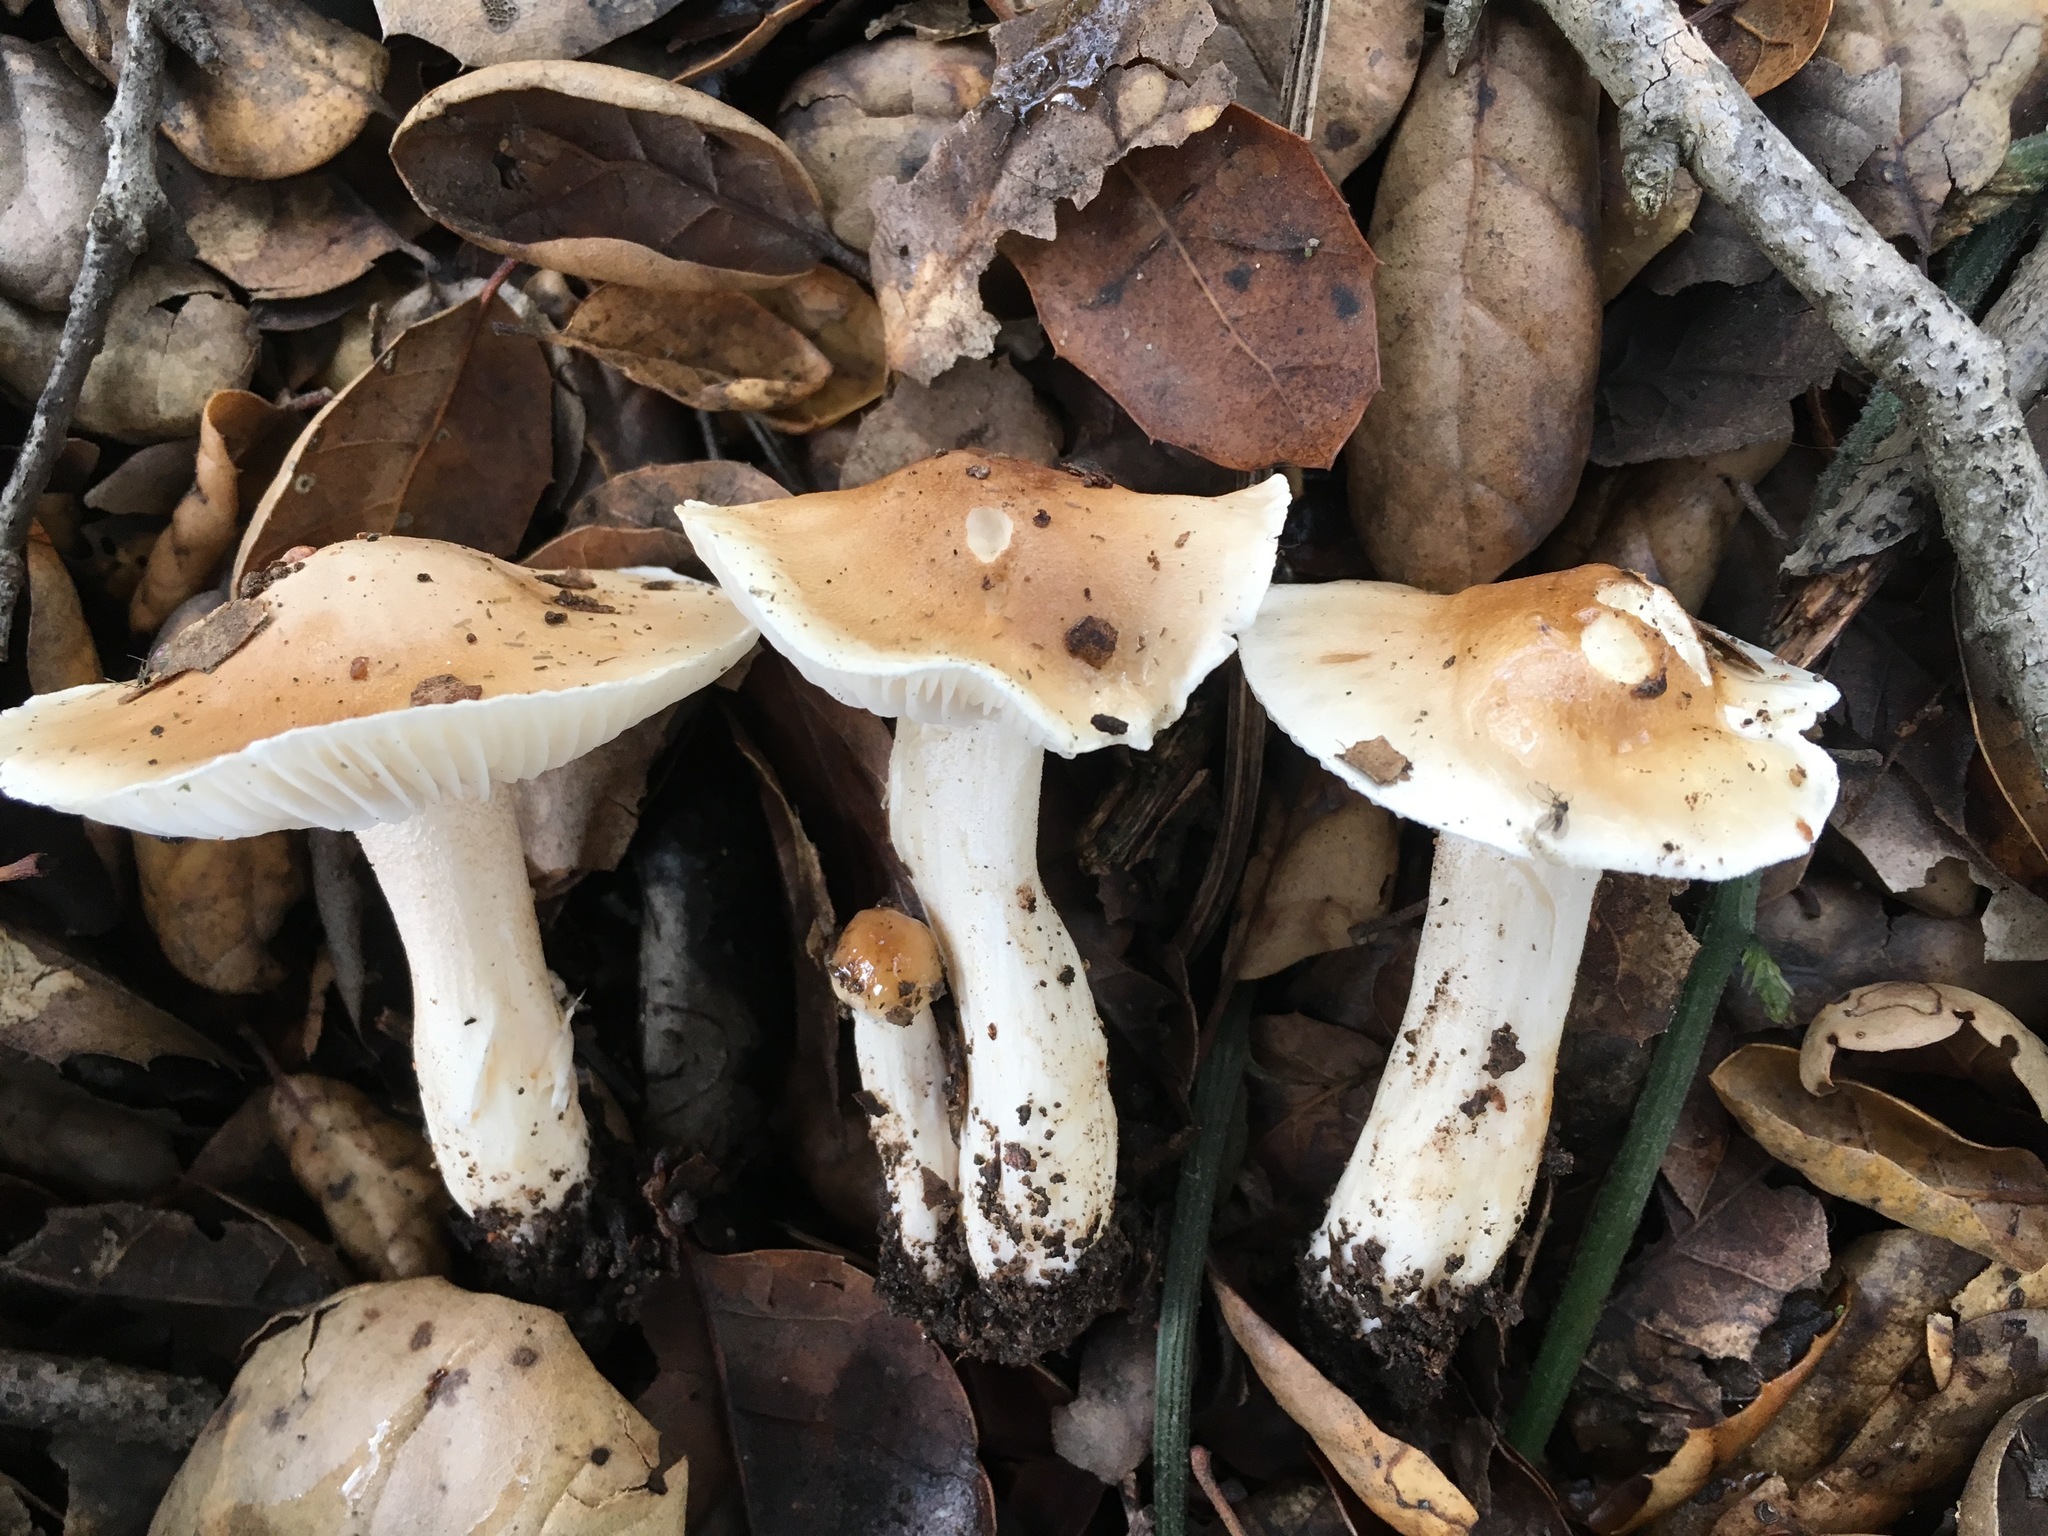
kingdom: Fungi
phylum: Basidiomycota
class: Agaricomycetes
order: Agaricales
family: Hygrophoraceae
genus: Hygrophorus
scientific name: Hygrophorus roseobrunneus
